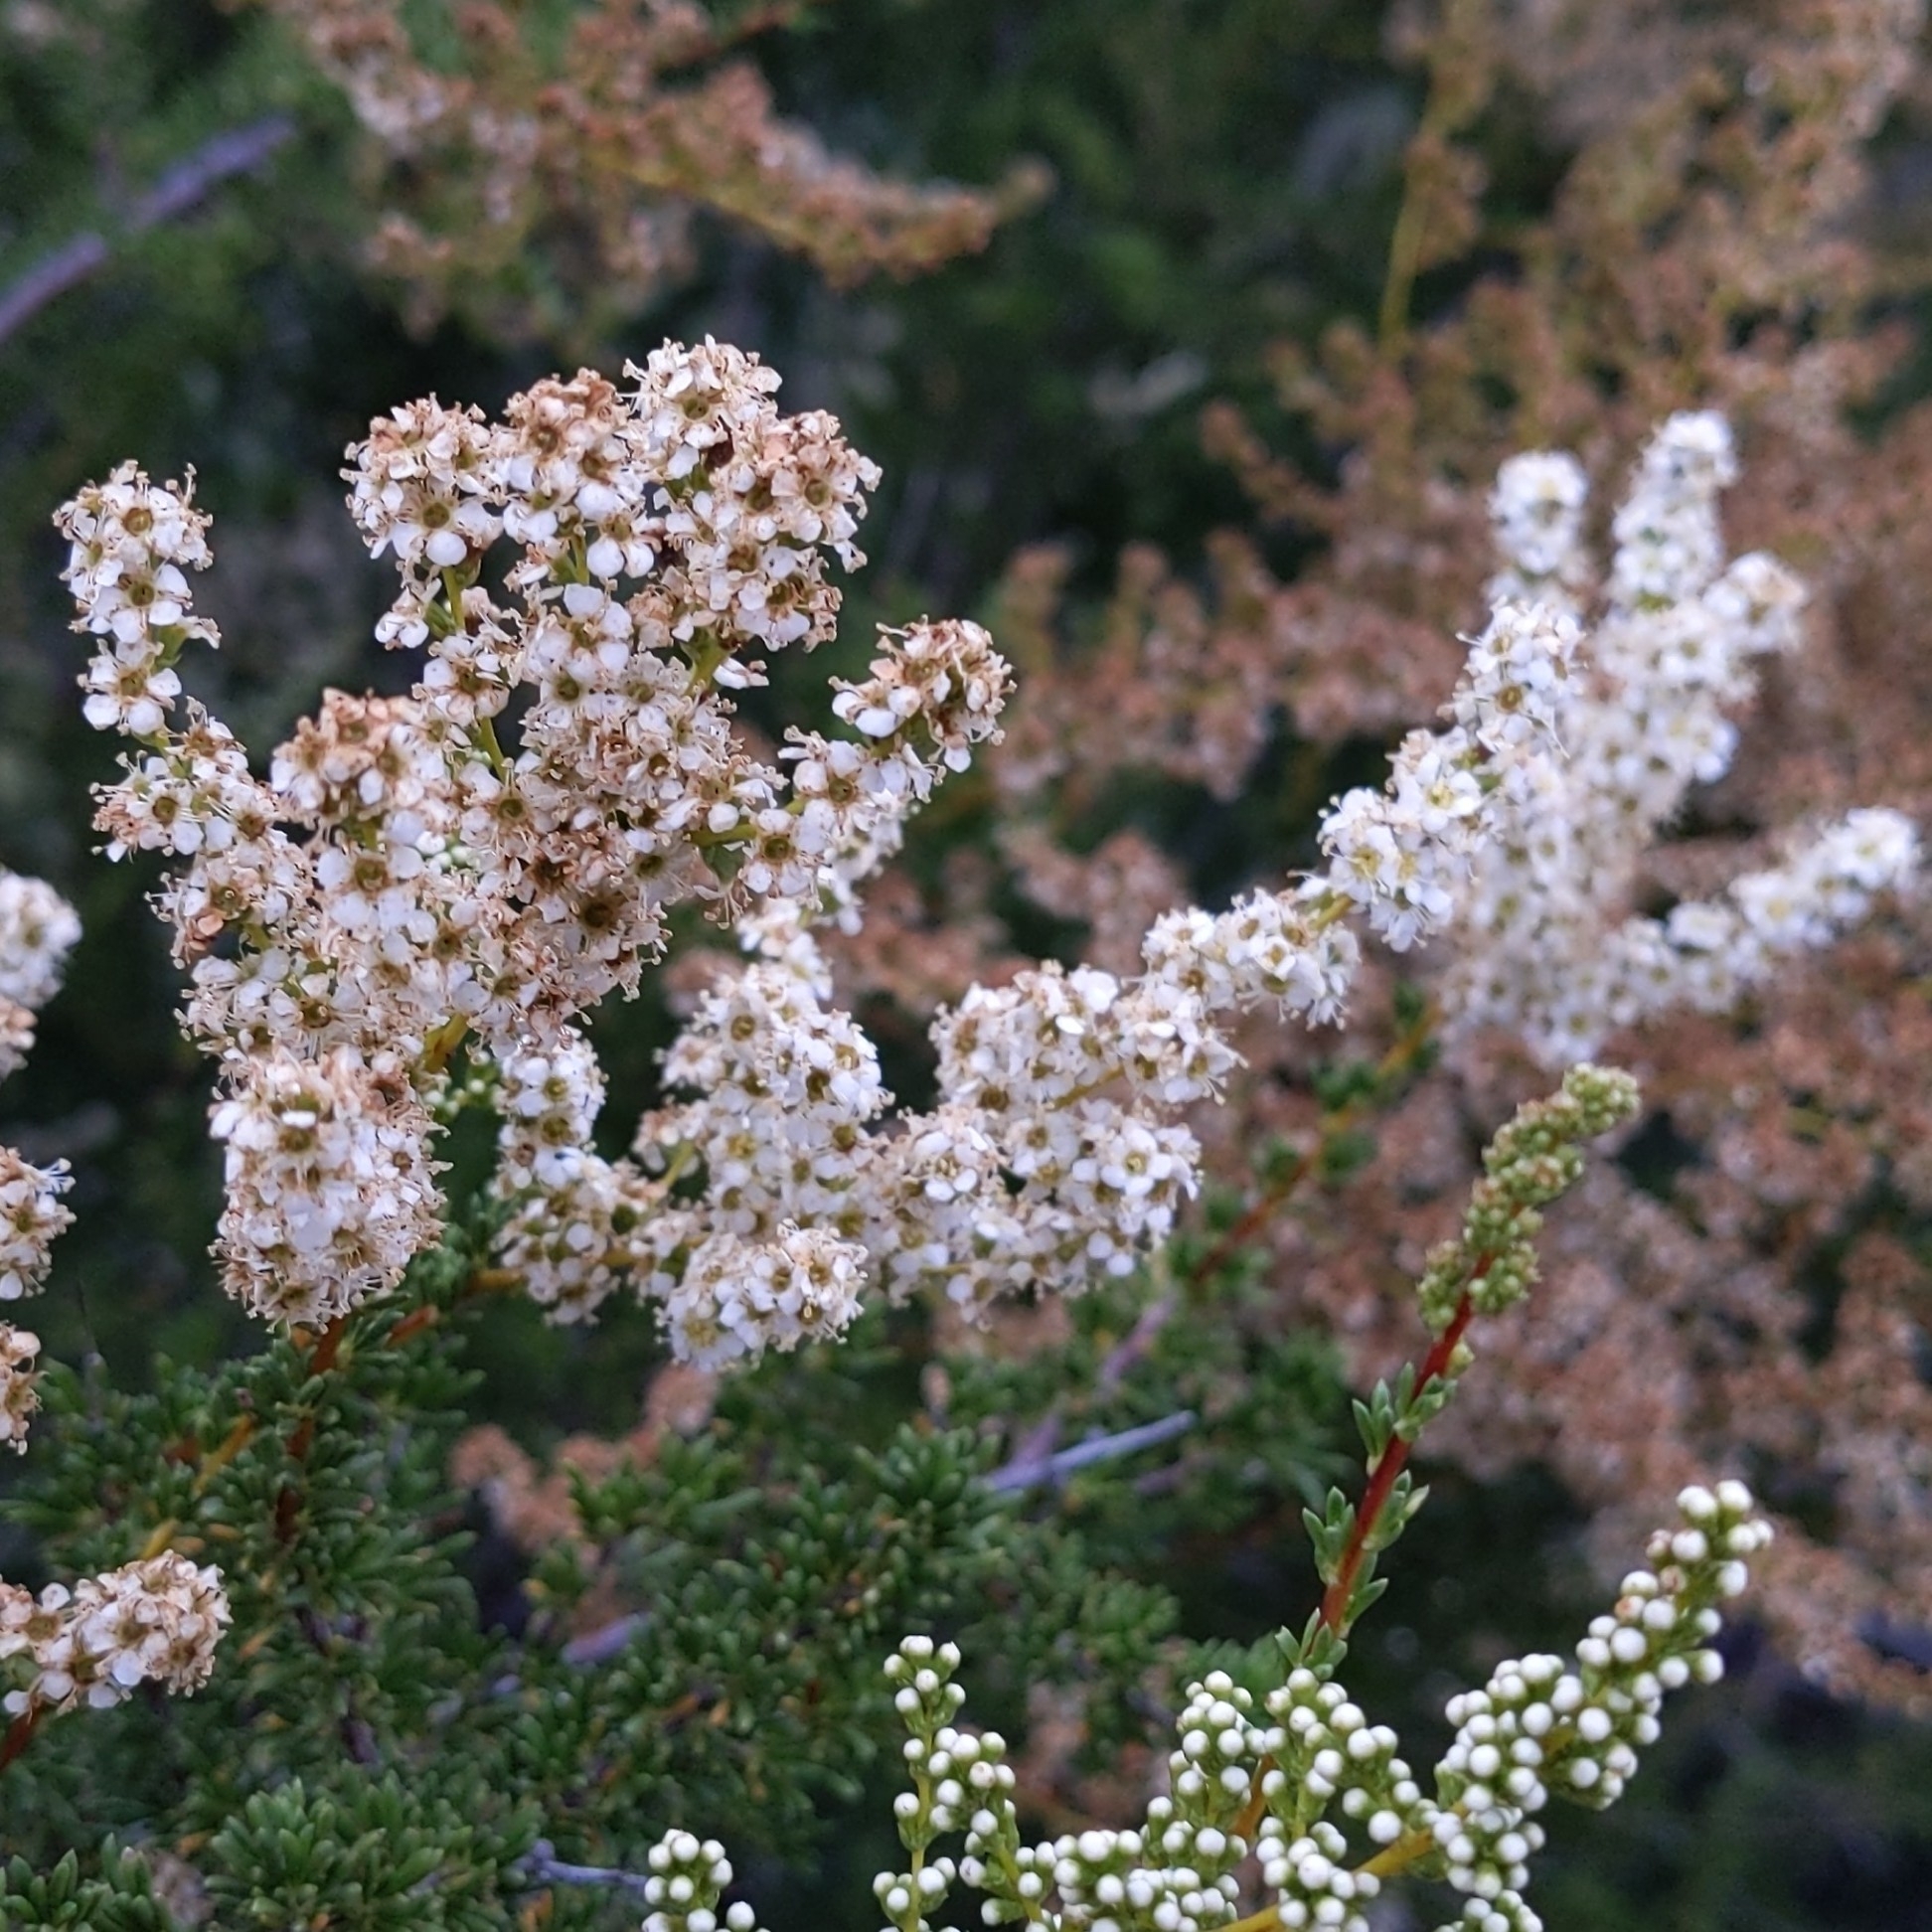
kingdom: Plantae
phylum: Tracheophyta
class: Magnoliopsida
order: Rosales
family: Rosaceae
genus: Adenostoma
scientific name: Adenostoma fasciculatum
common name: Chamise
